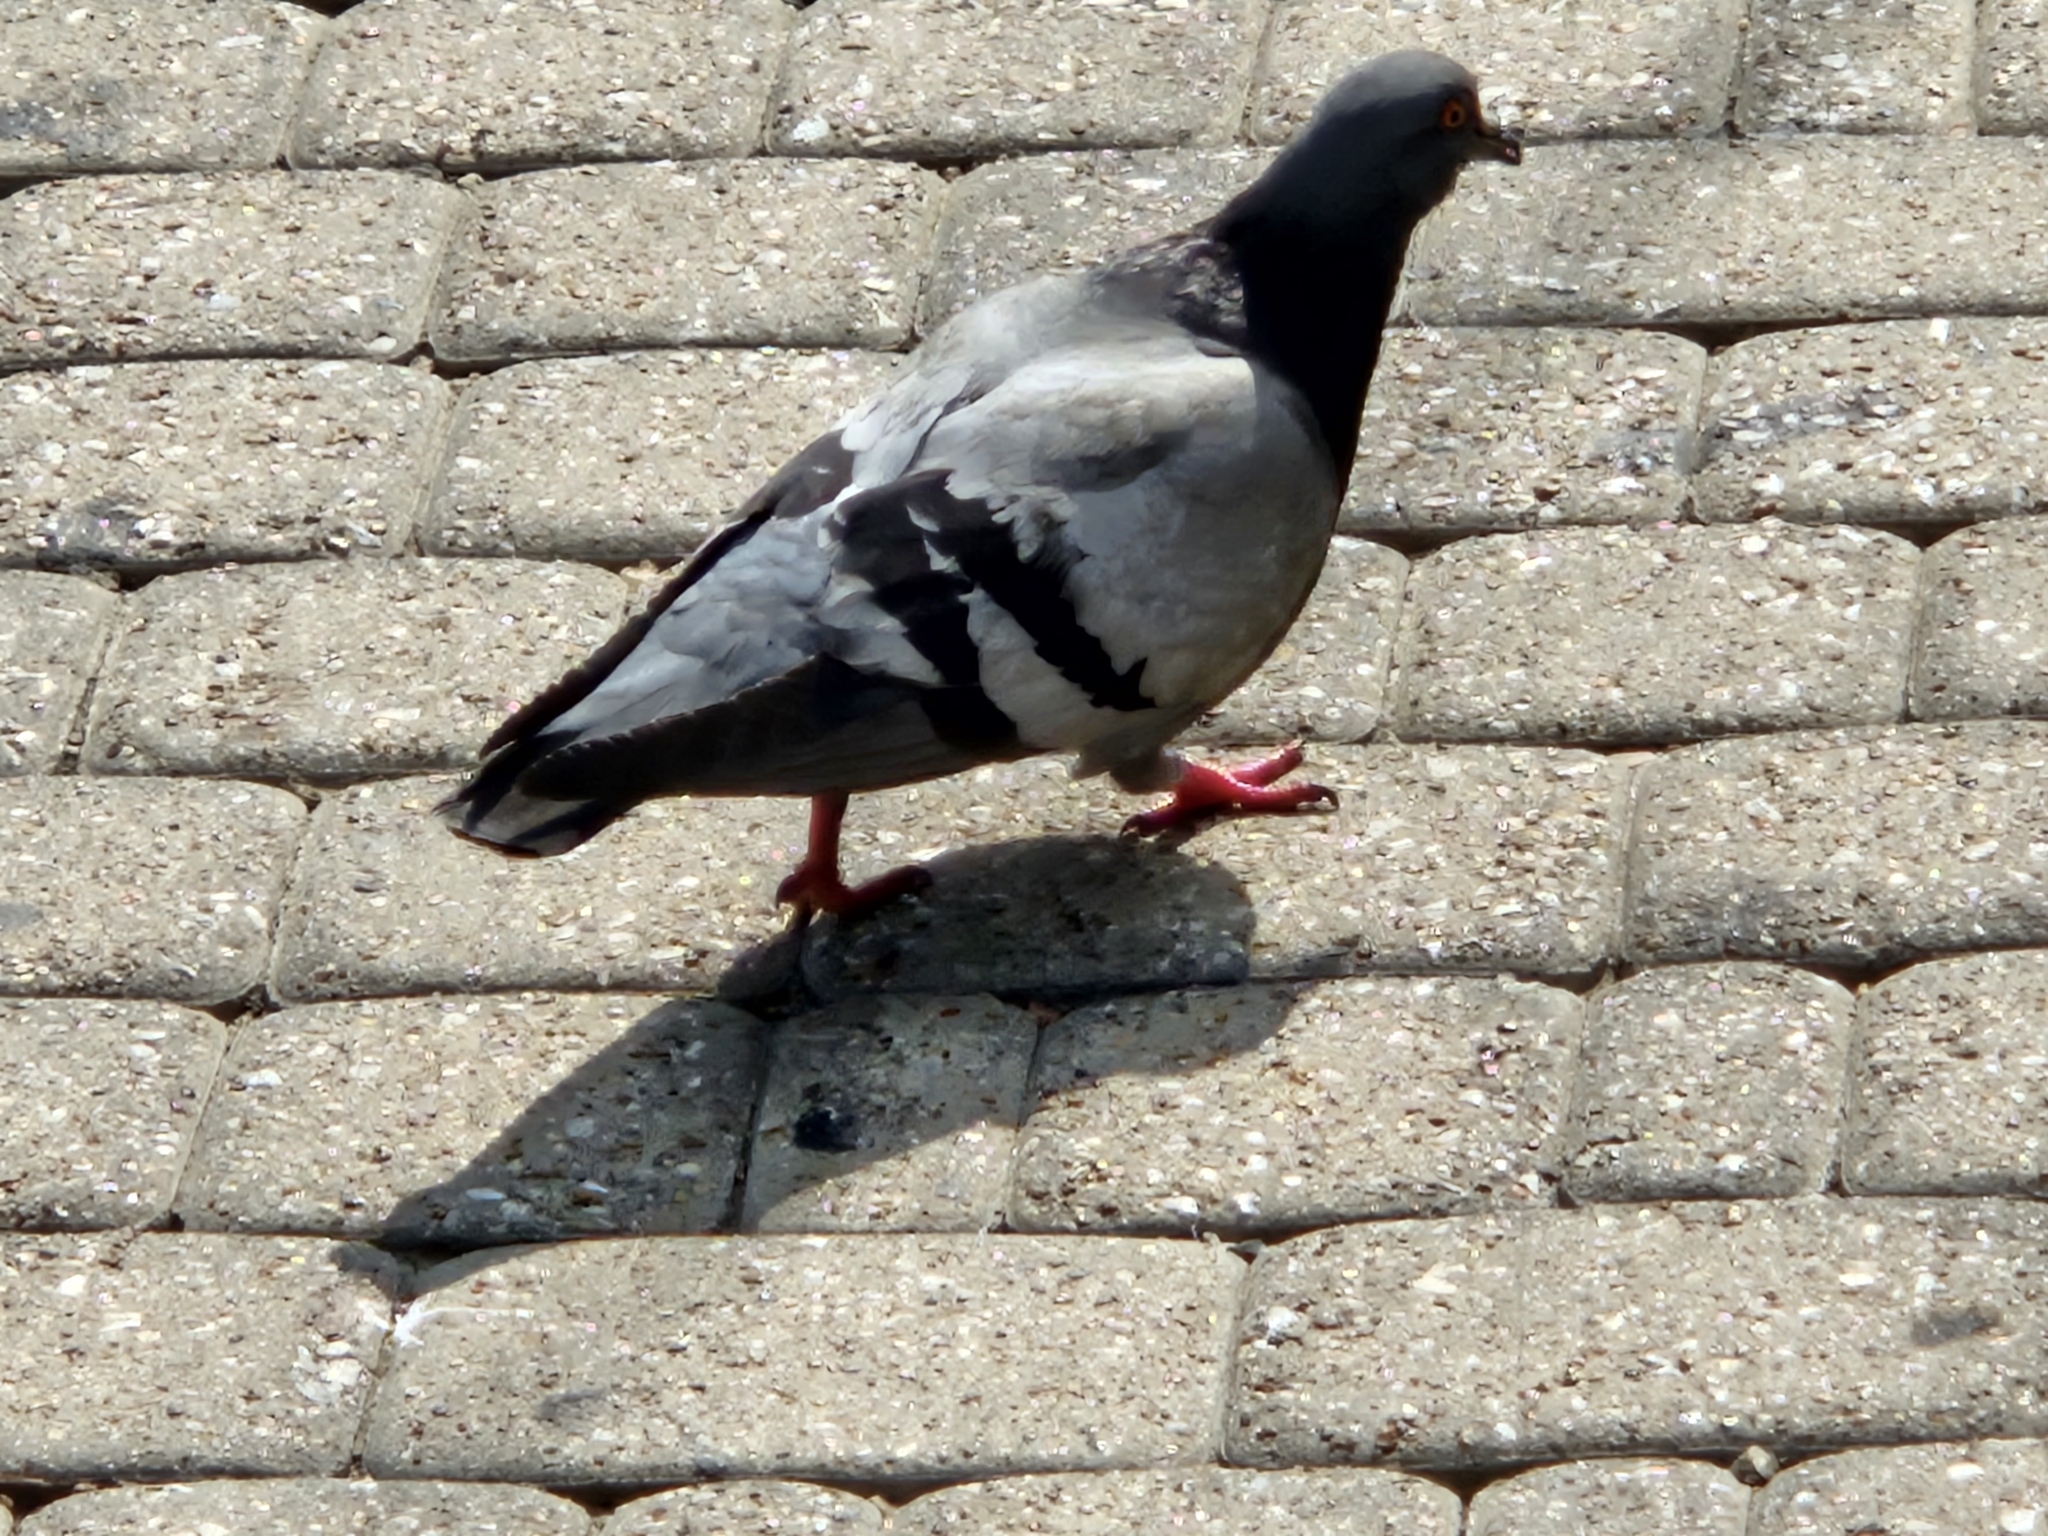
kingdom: Animalia
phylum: Chordata
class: Aves
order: Columbiformes
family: Columbidae
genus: Columba
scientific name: Columba livia
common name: Rock pigeon
